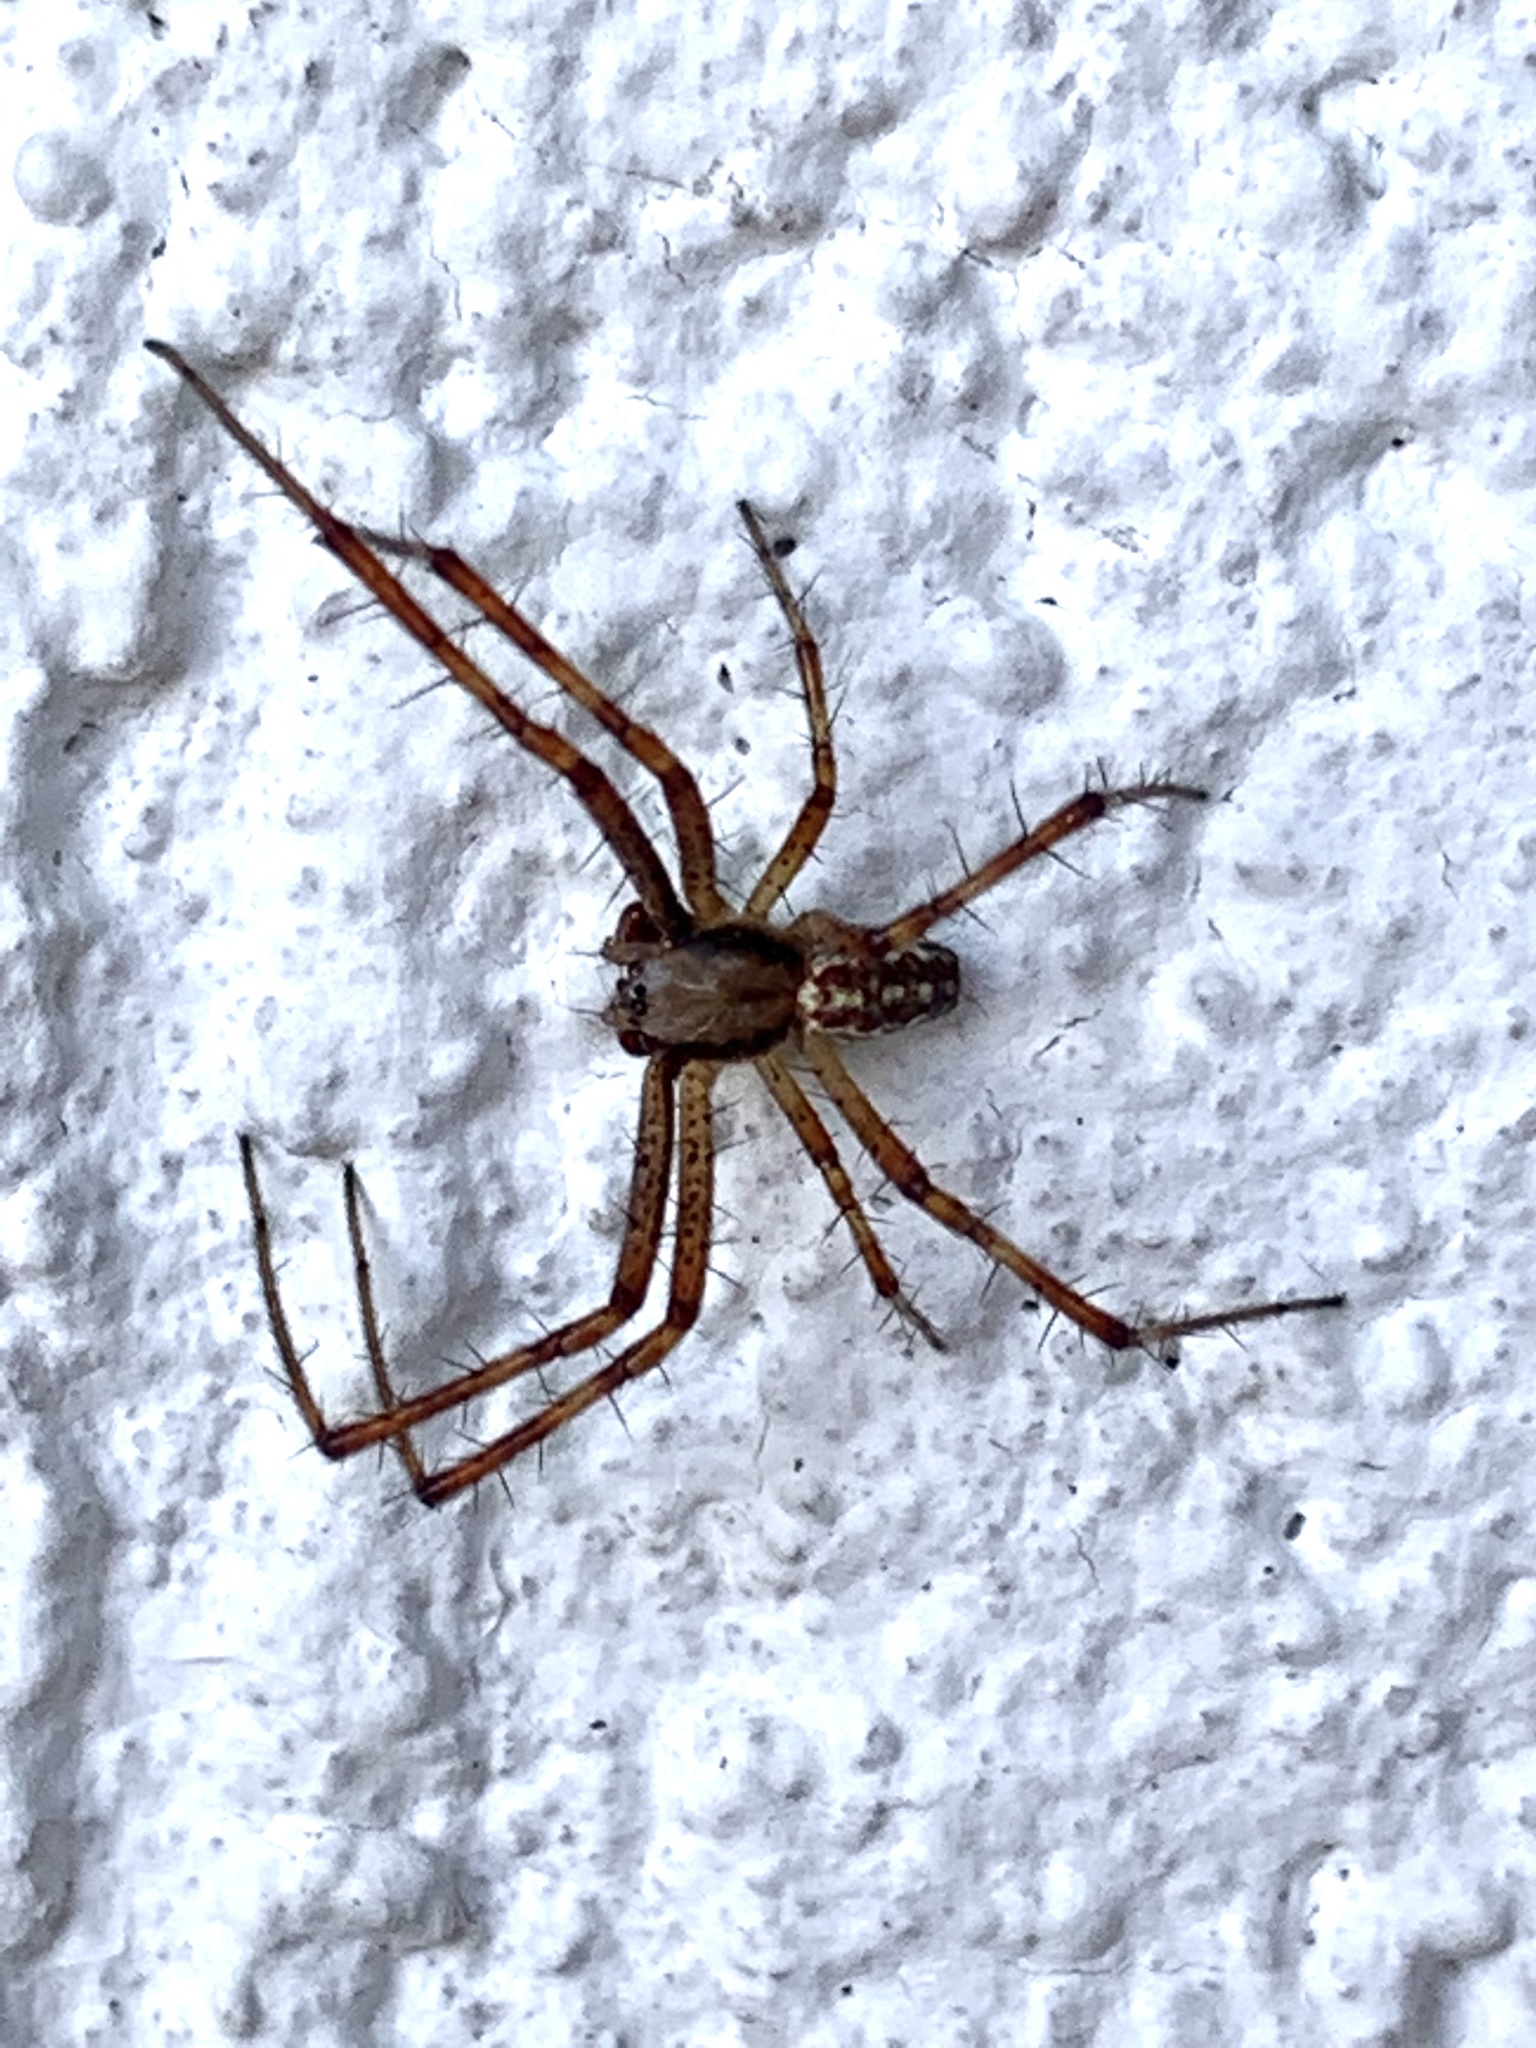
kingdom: Animalia
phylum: Arthropoda
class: Arachnida
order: Araneae
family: Araneidae
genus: Argiope
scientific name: Argiope bruennichi
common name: Wasp spider
